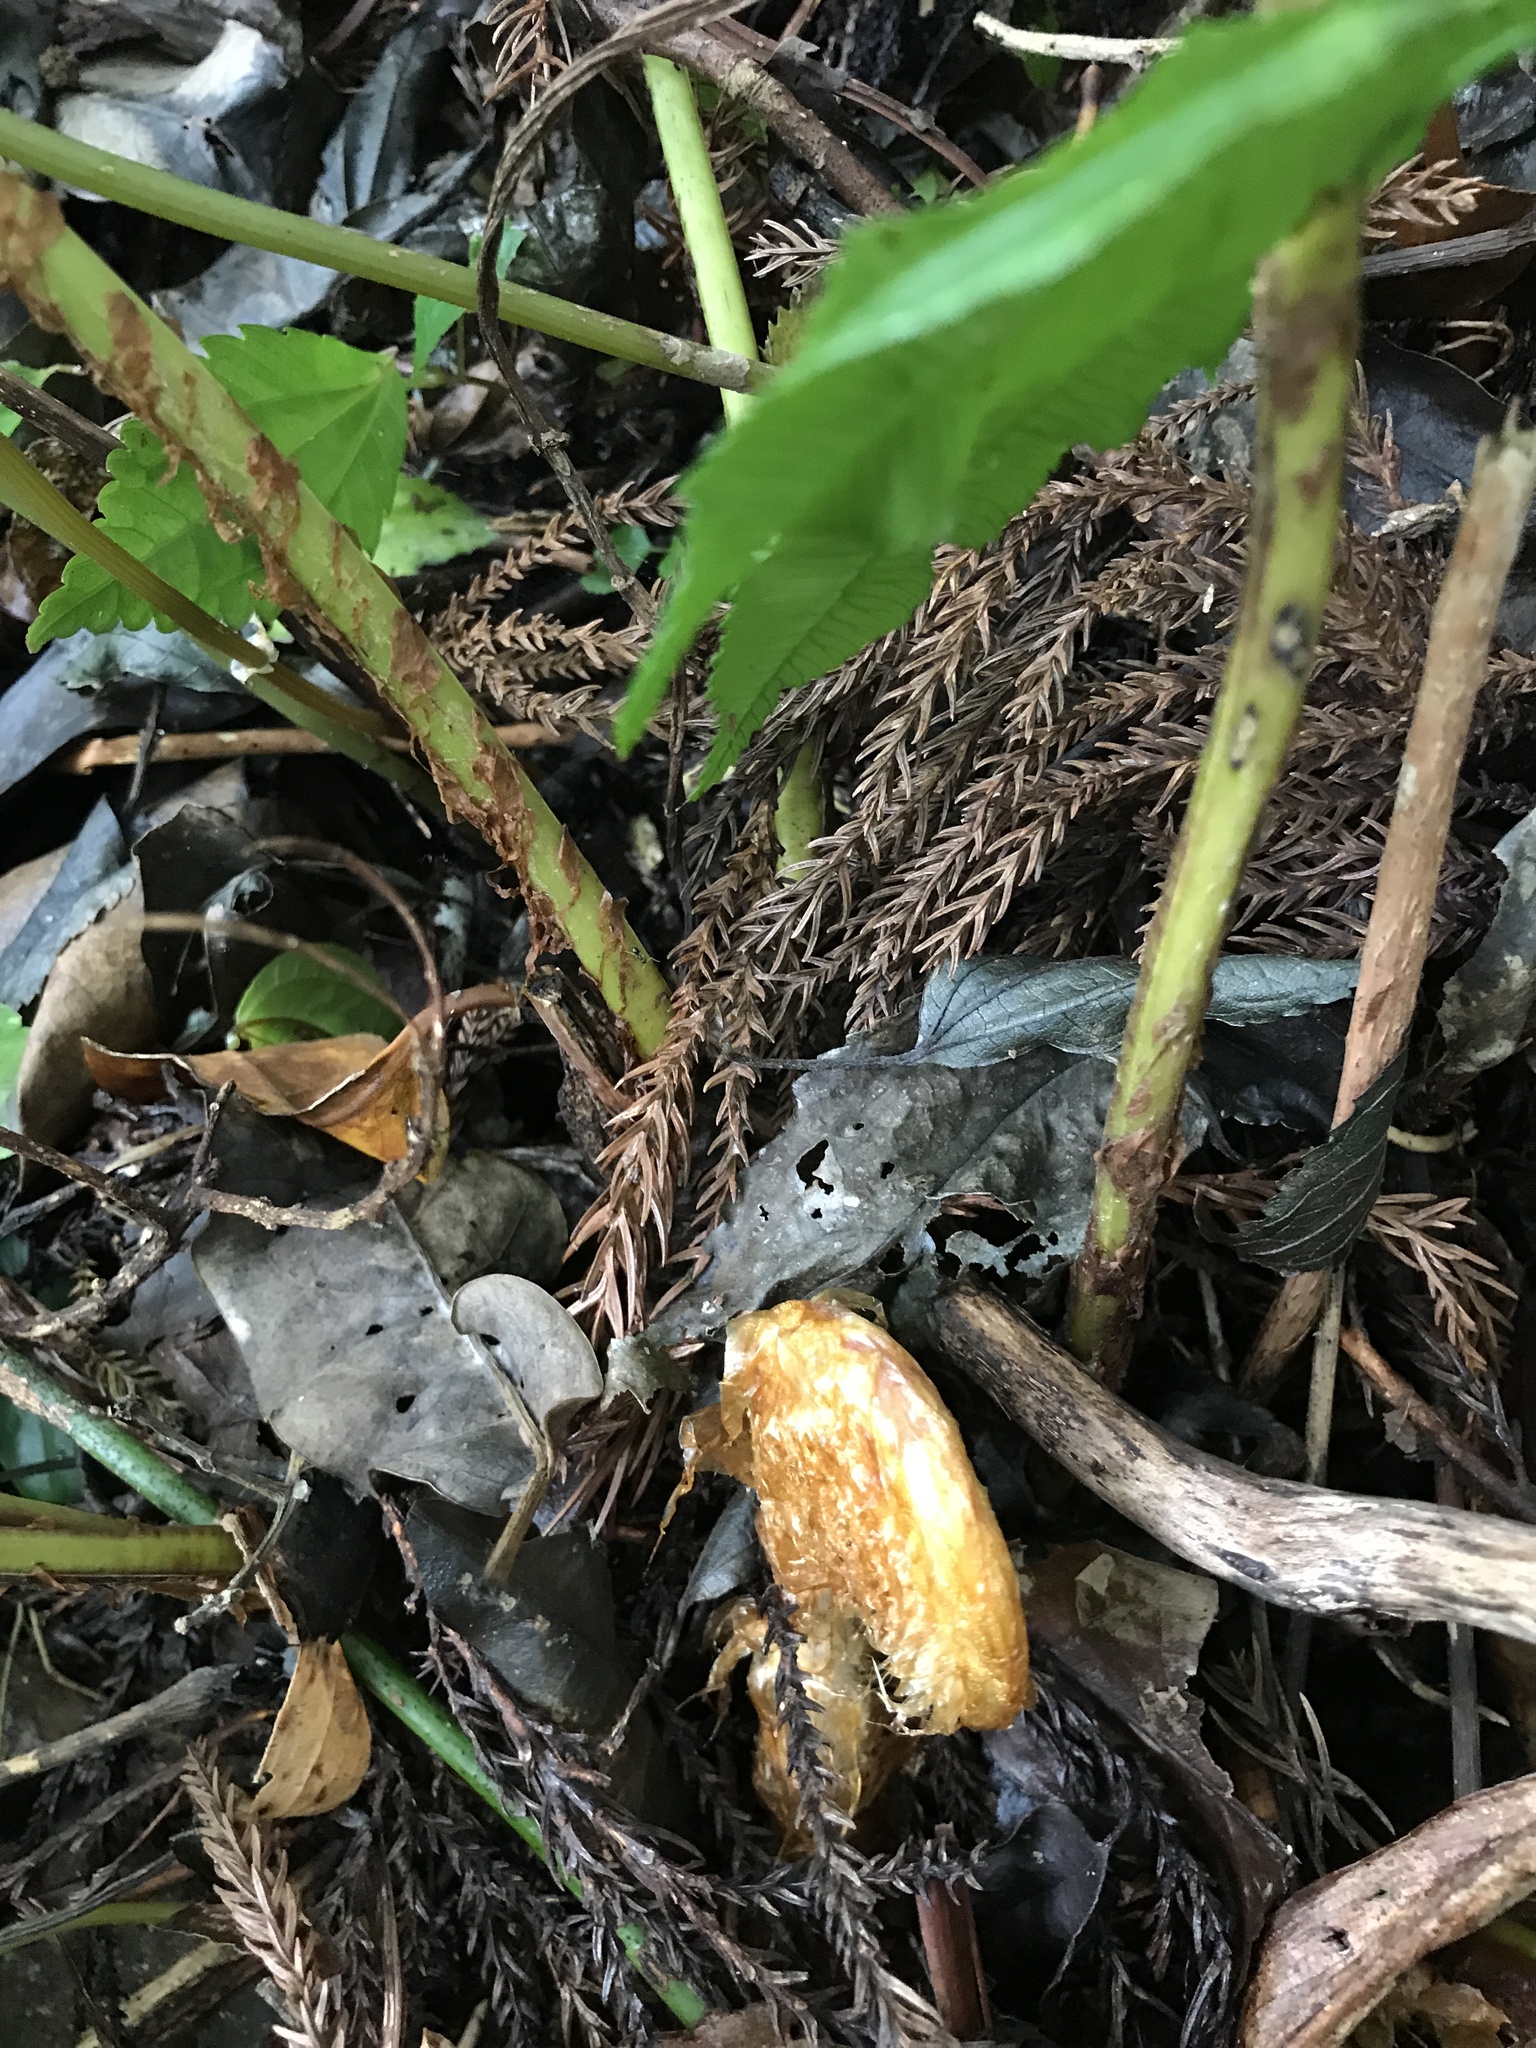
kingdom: Plantae
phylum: Tracheophyta
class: Polypodiopsida
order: Polypodiales
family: Blechnaceae
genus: Woodwardia
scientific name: Woodwardia japonica
